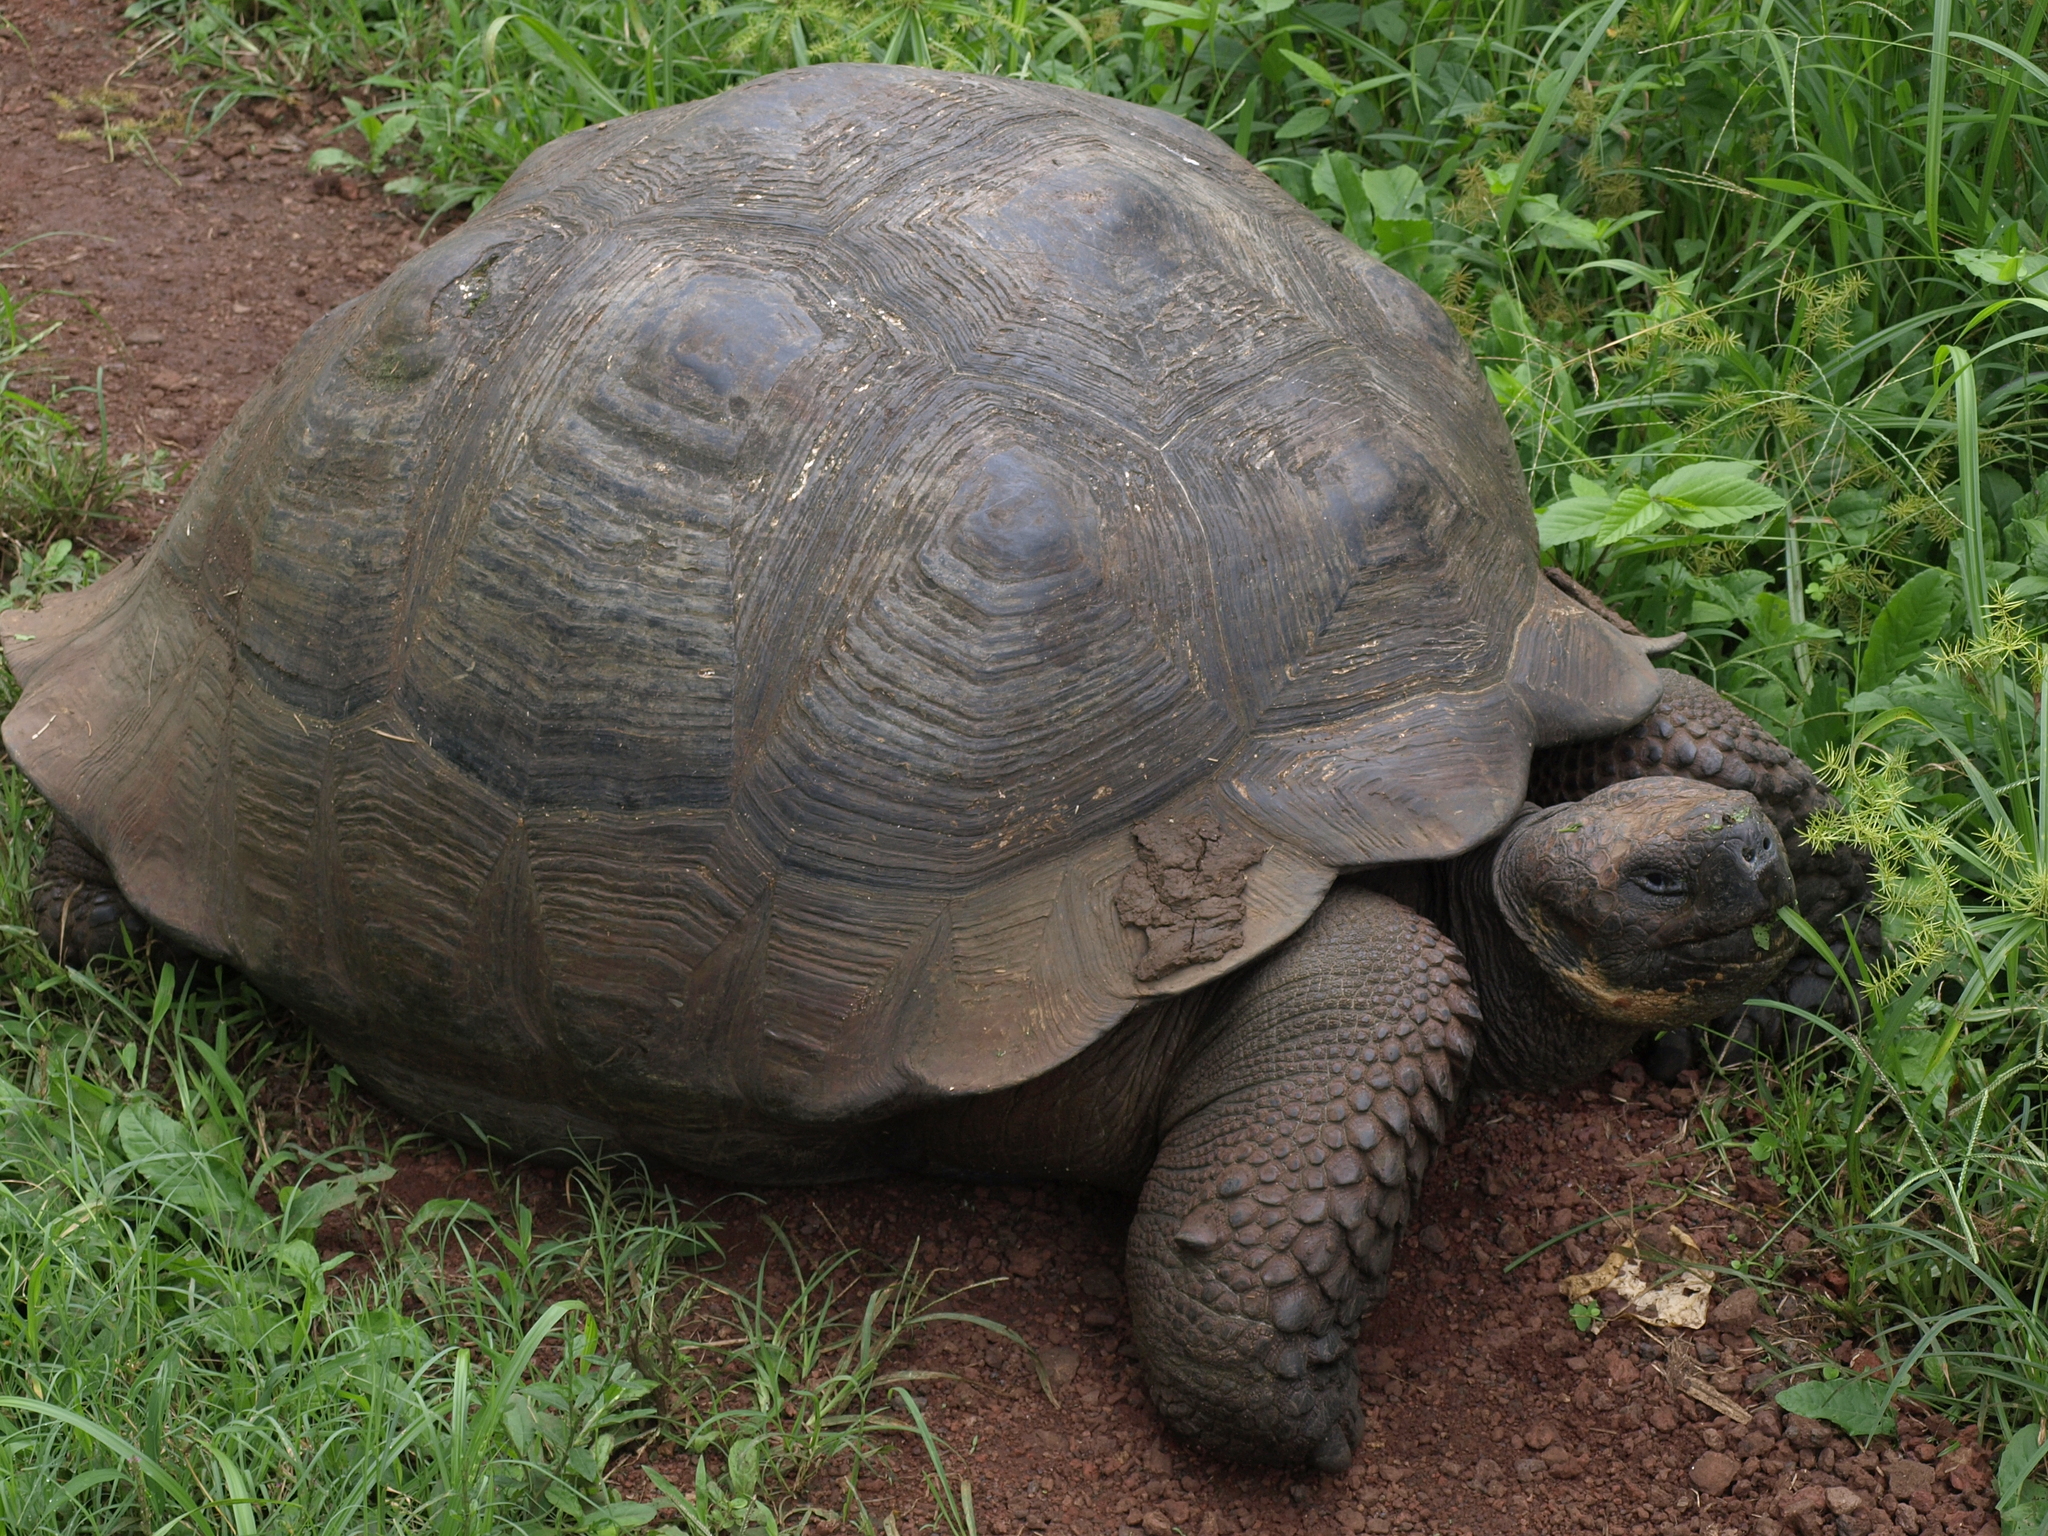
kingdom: Animalia
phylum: Chordata
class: Testudines
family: Testudinidae
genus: Chelonoidis
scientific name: Chelonoidis porteri
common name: Indefatigable island giant tortoise
